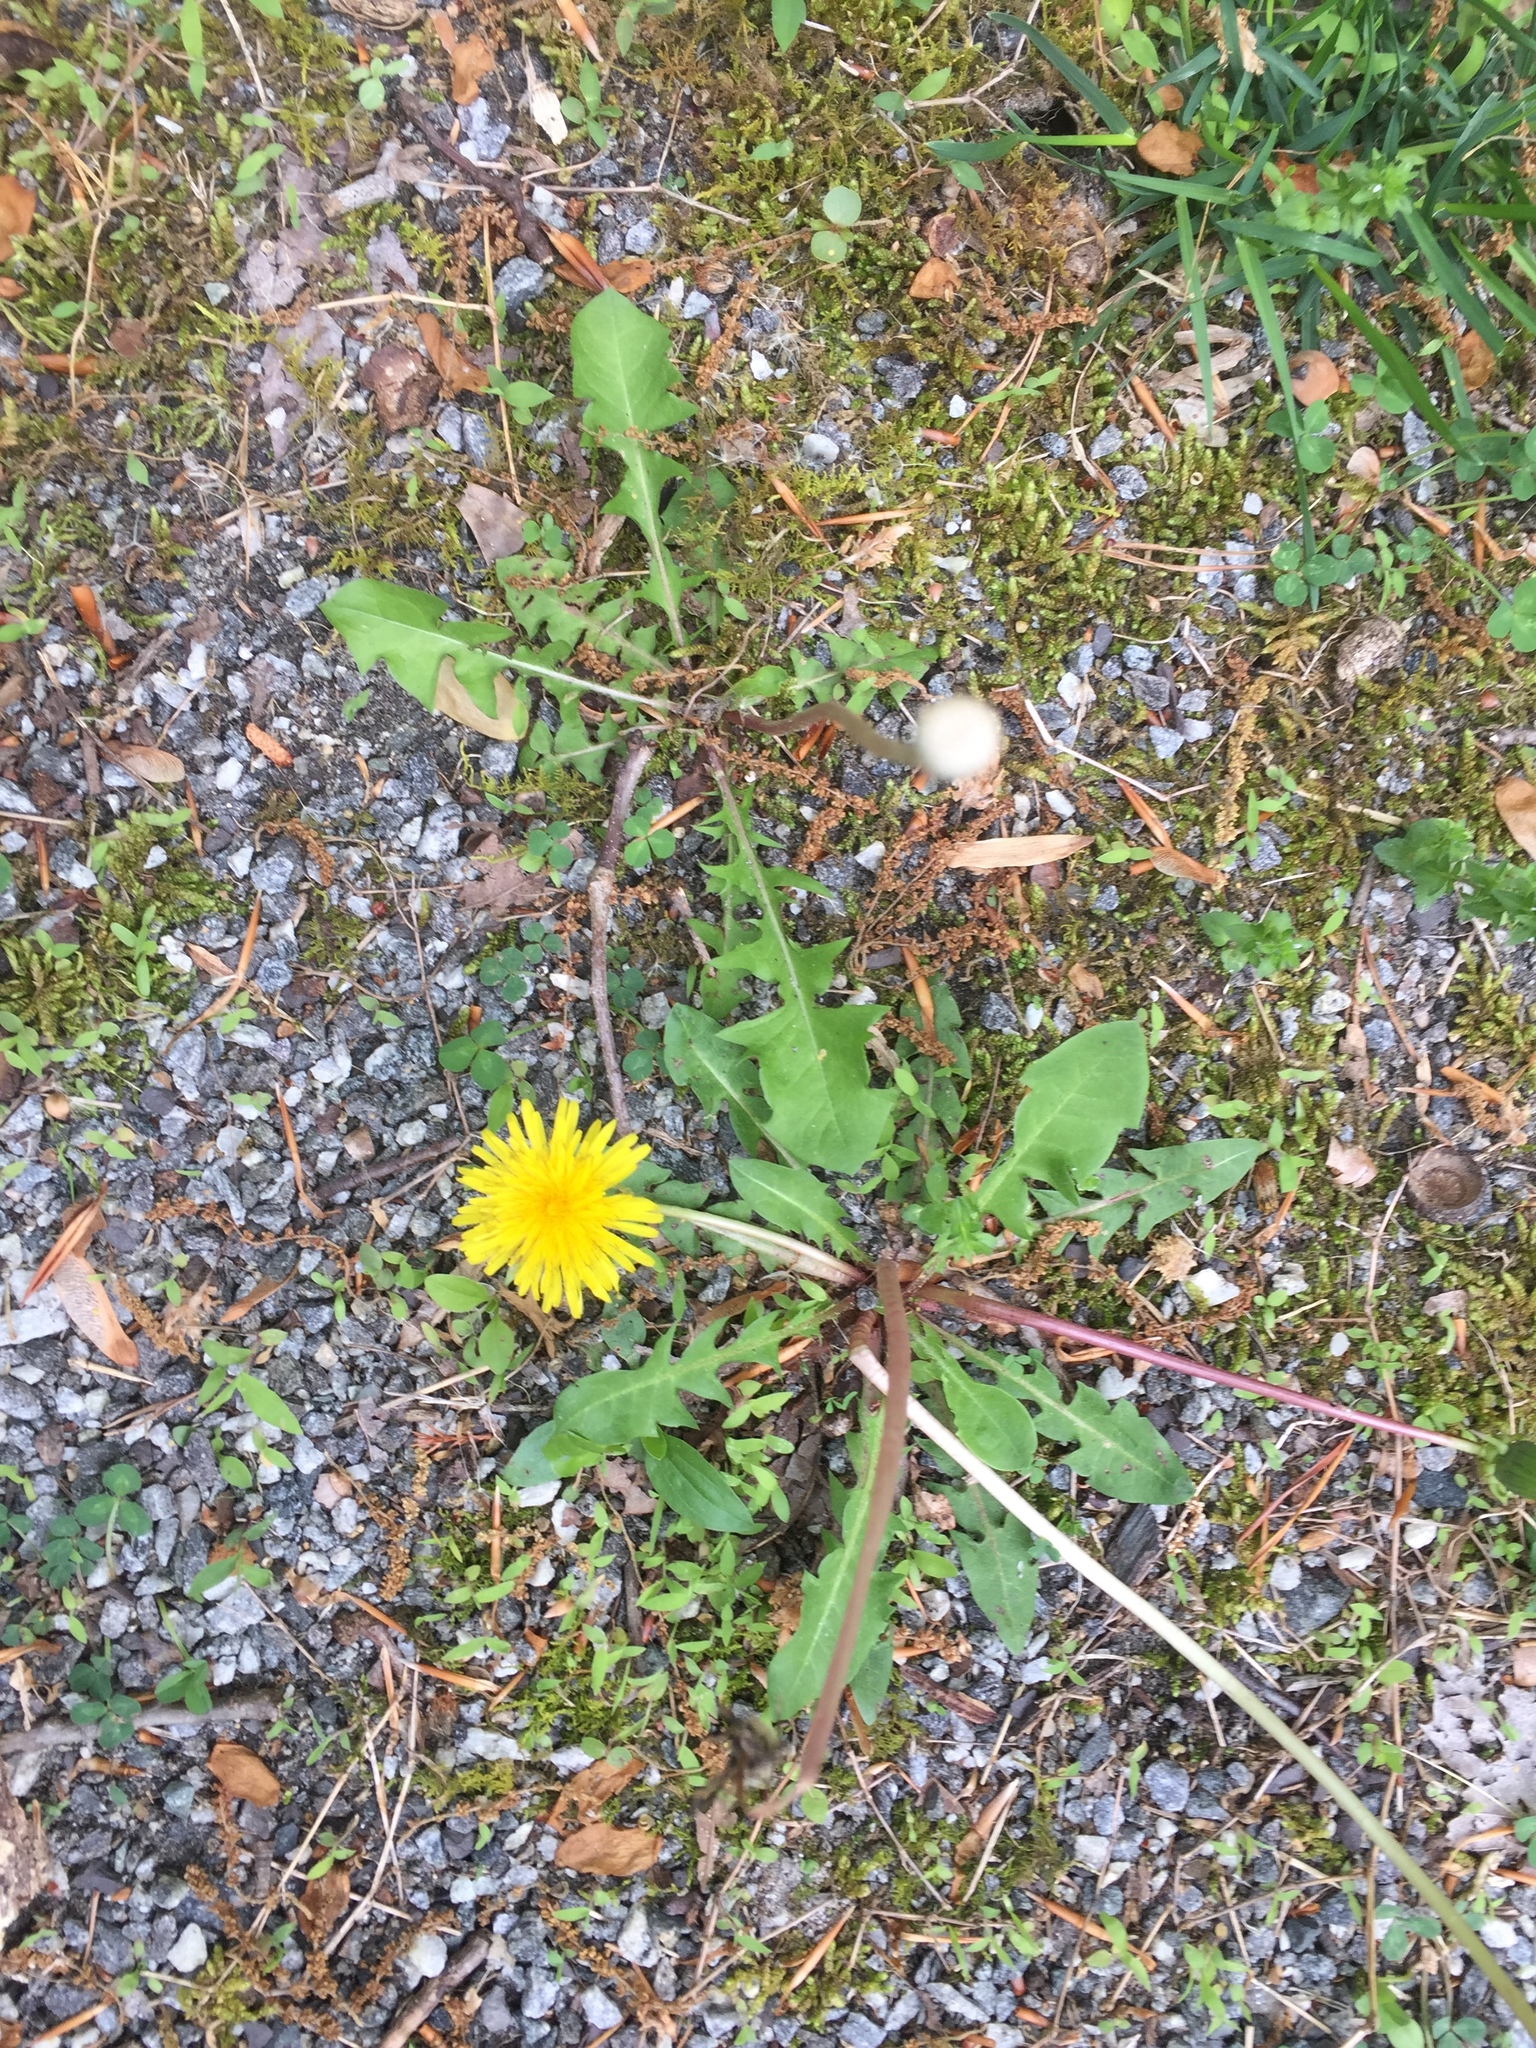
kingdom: Plantae
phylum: Tracheophyta
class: Magnoliopsida
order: Asterales
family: Asteraceae
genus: Taraxacum
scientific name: Taraxacum officinale
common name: Common dandelion
